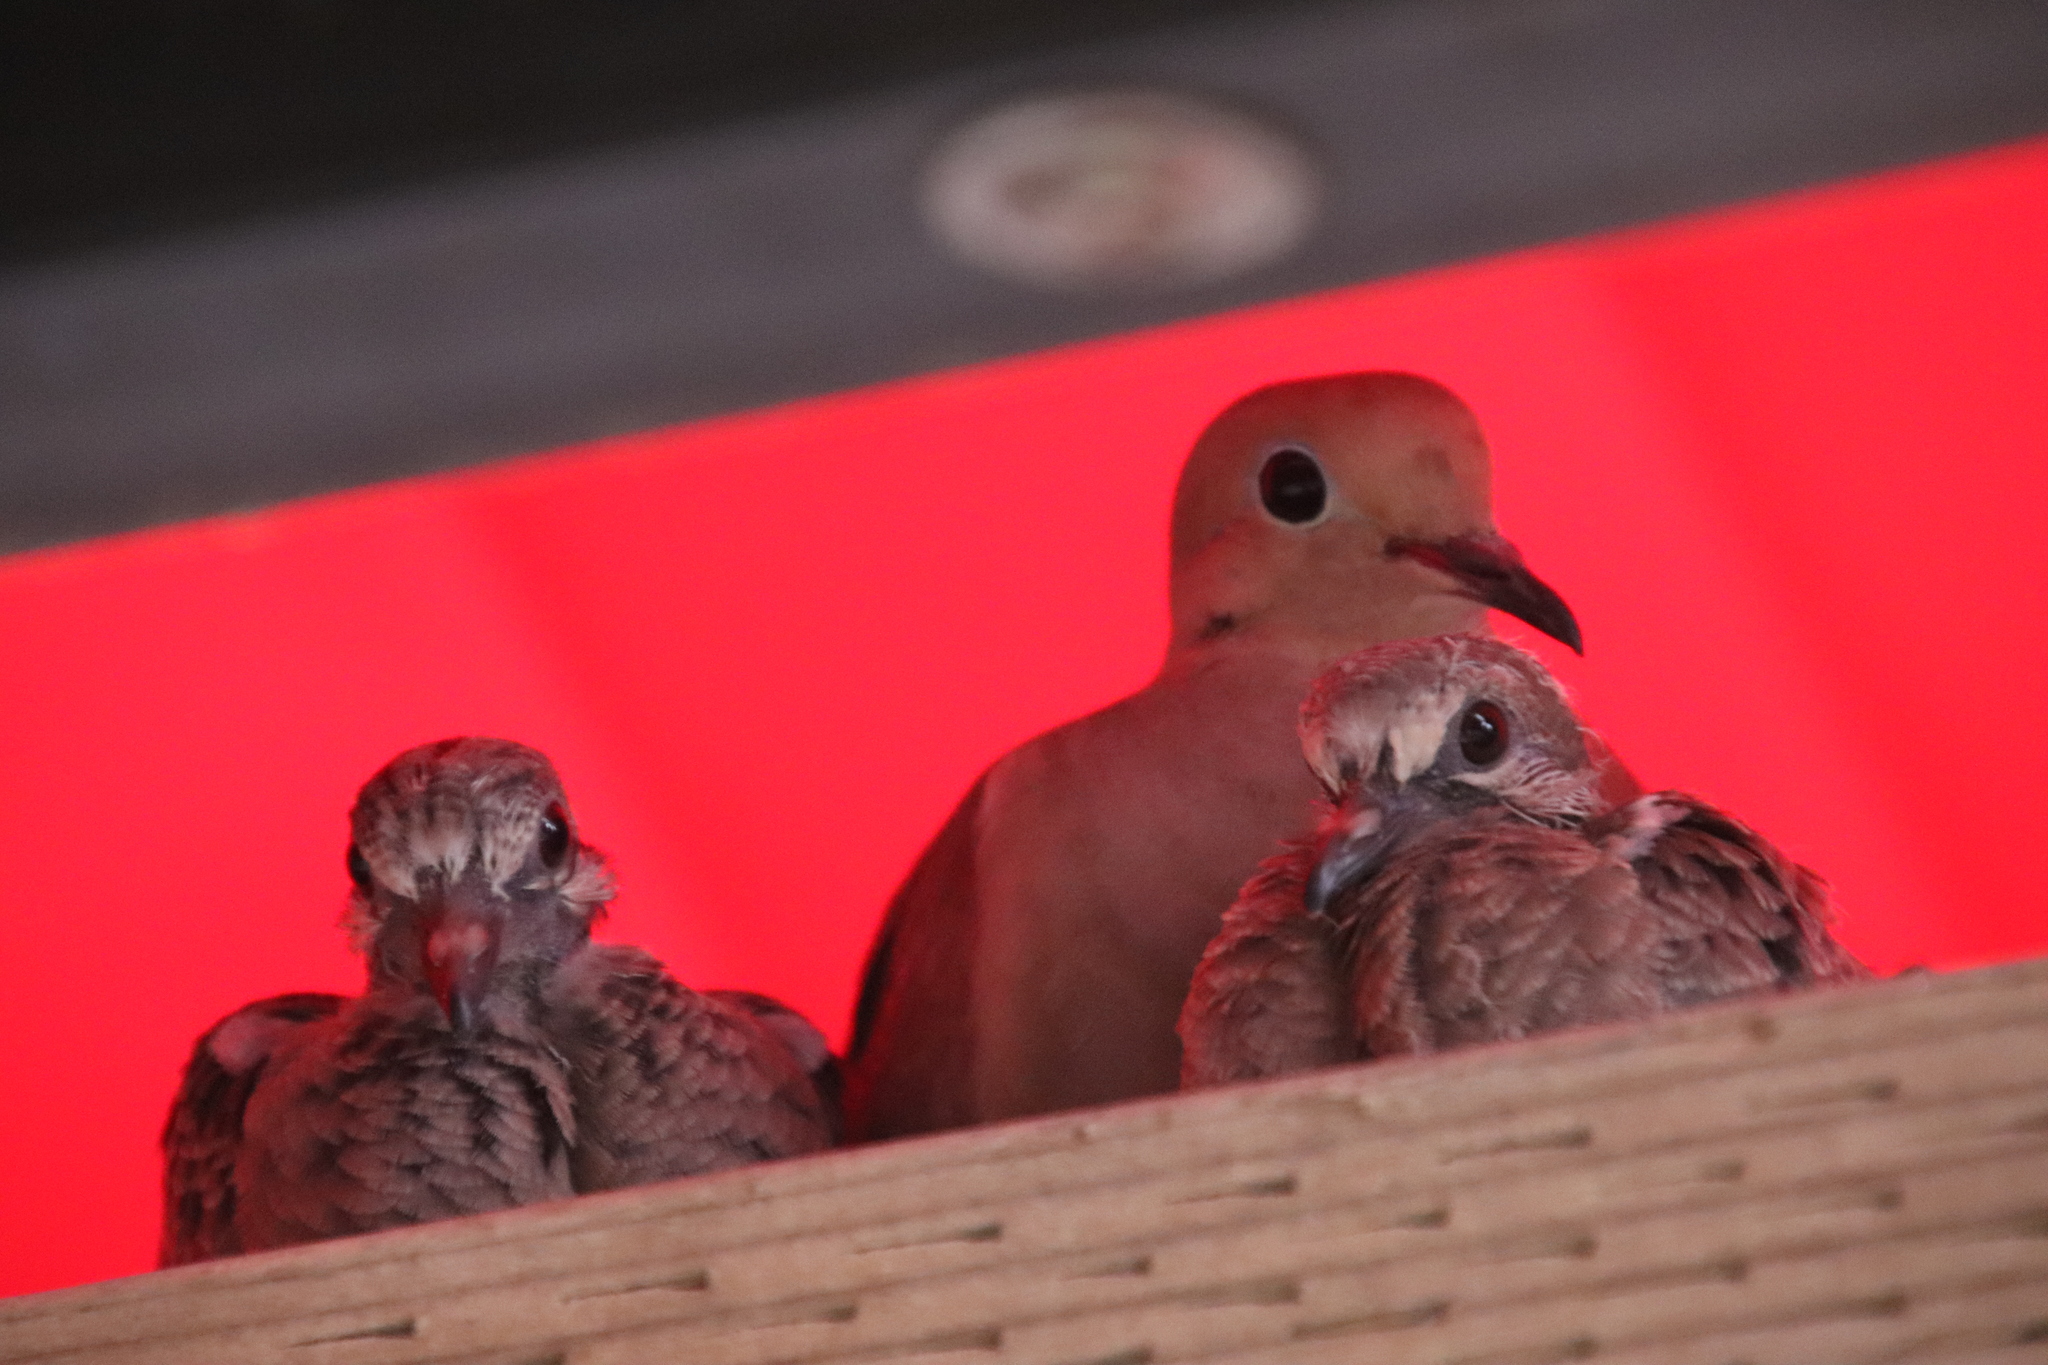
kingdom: Animalia
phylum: Chordata
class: Aves
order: Columbiformes
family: Columbidae
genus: Zenaida
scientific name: Zenaida macroura
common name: Mourning dove
